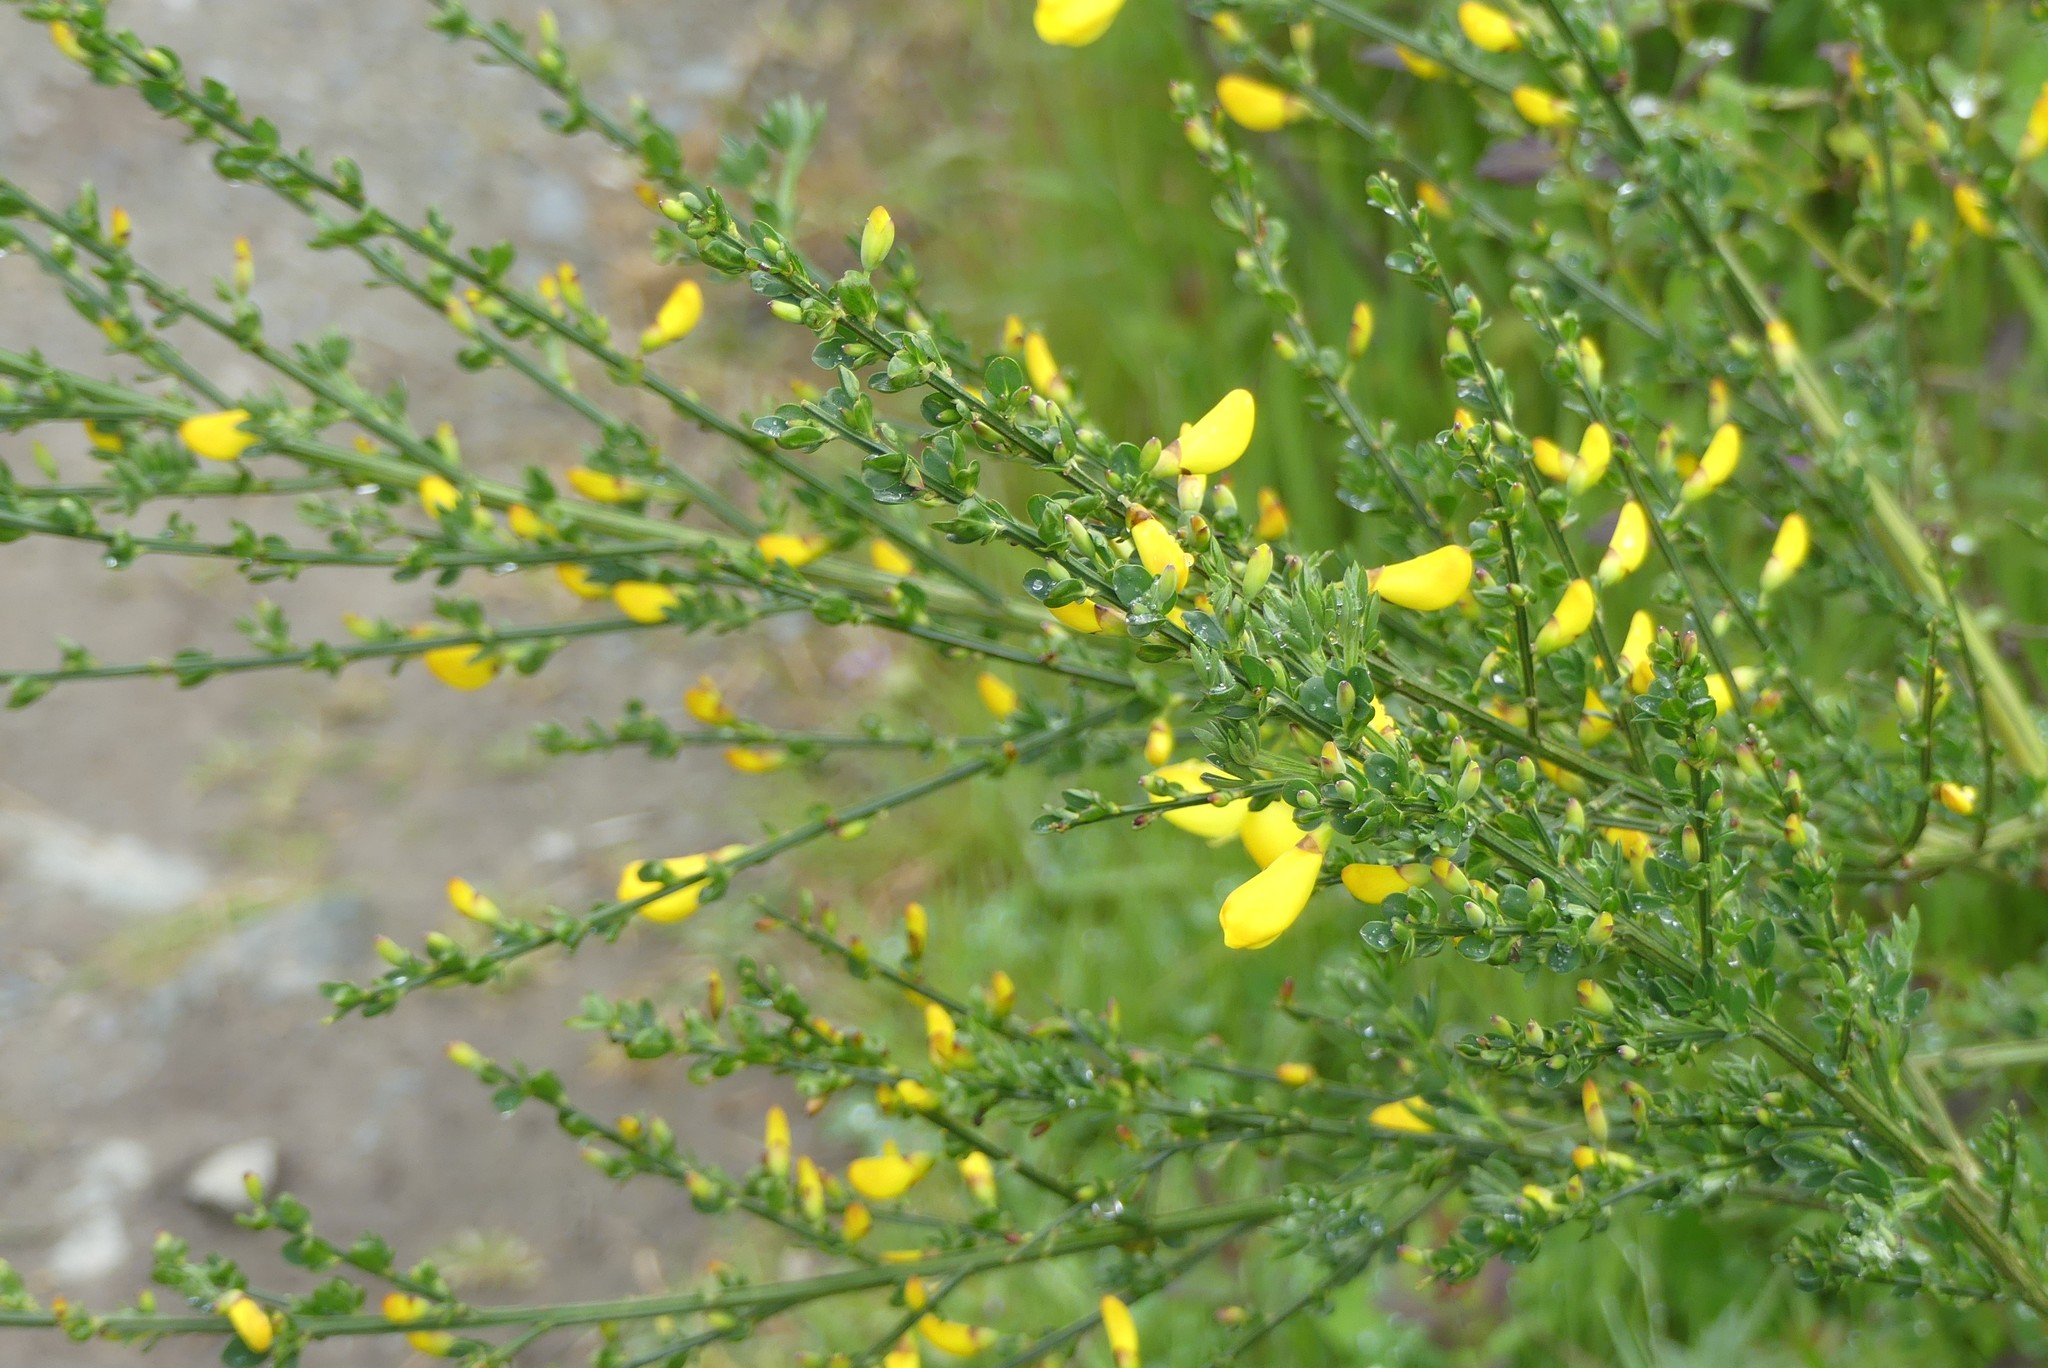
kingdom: Plantae
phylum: Tracheophyta
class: Magnoliopsida
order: Fabales
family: Fabaceae
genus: Cytisus
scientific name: Cytisus scoparius
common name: Scotch broom
